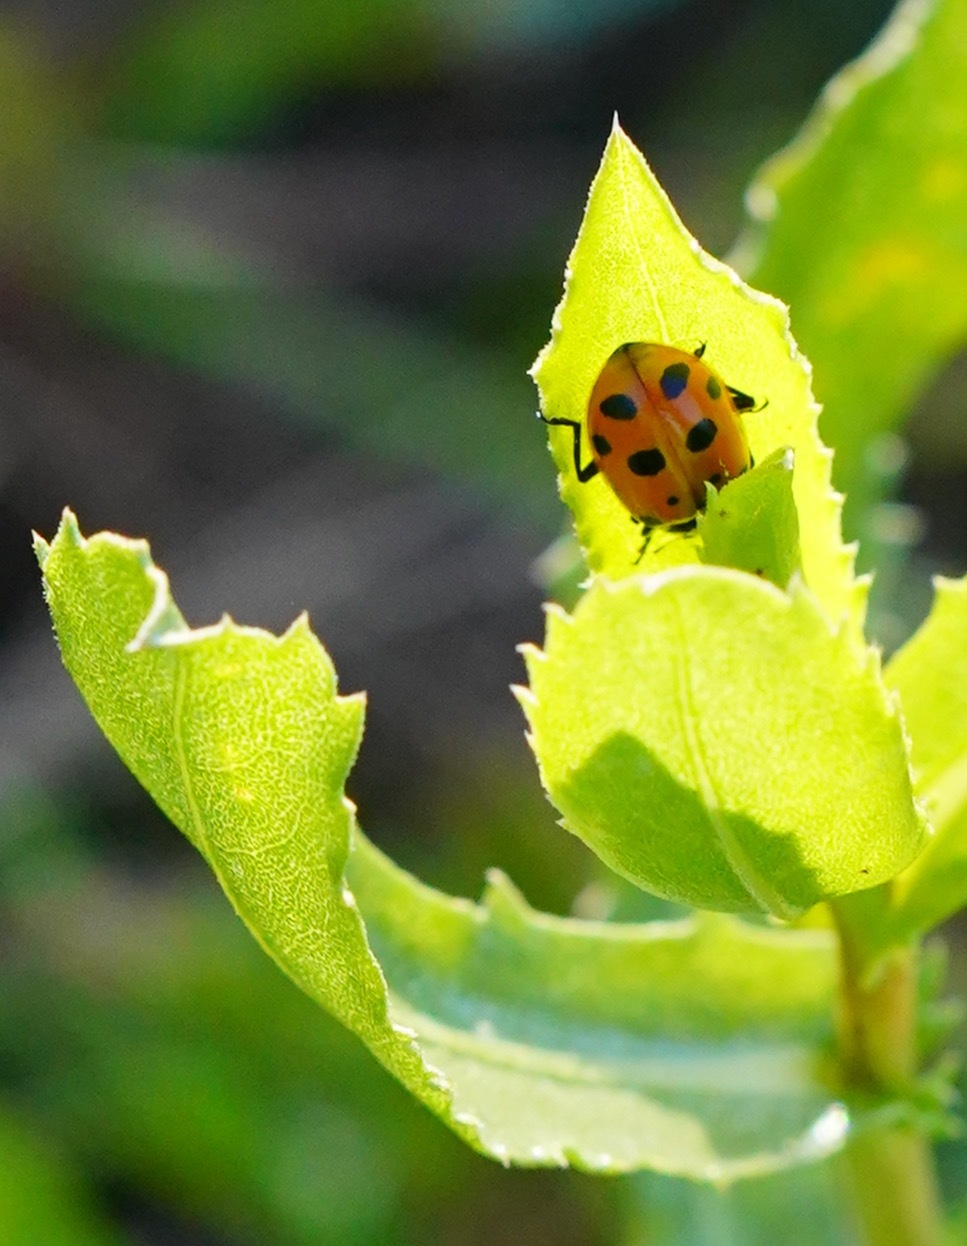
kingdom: Animalia
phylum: Arthropoda
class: Insecta
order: Coleoptera
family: Coccinellidae
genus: Hippodamia
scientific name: Hippodamia convergens
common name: Convergent lady beetle
